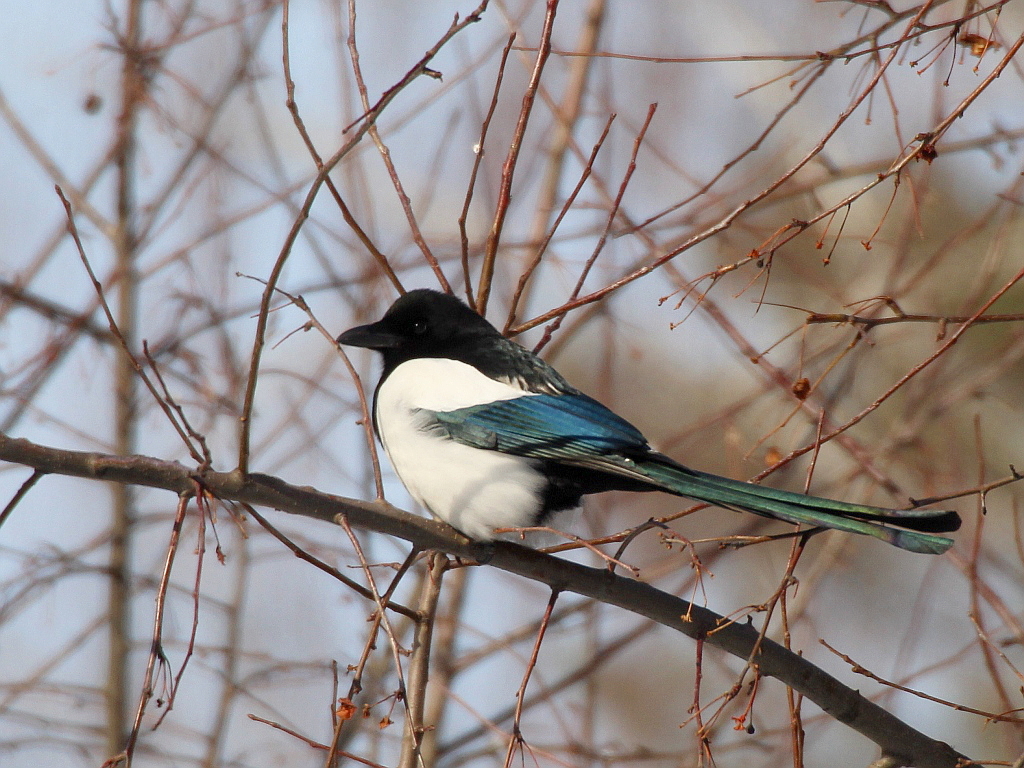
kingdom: Animalia
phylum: Chordata
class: Aves
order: Passeriformes
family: Corvidae
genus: Pica
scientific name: Pica pica
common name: Eurasian magpie
